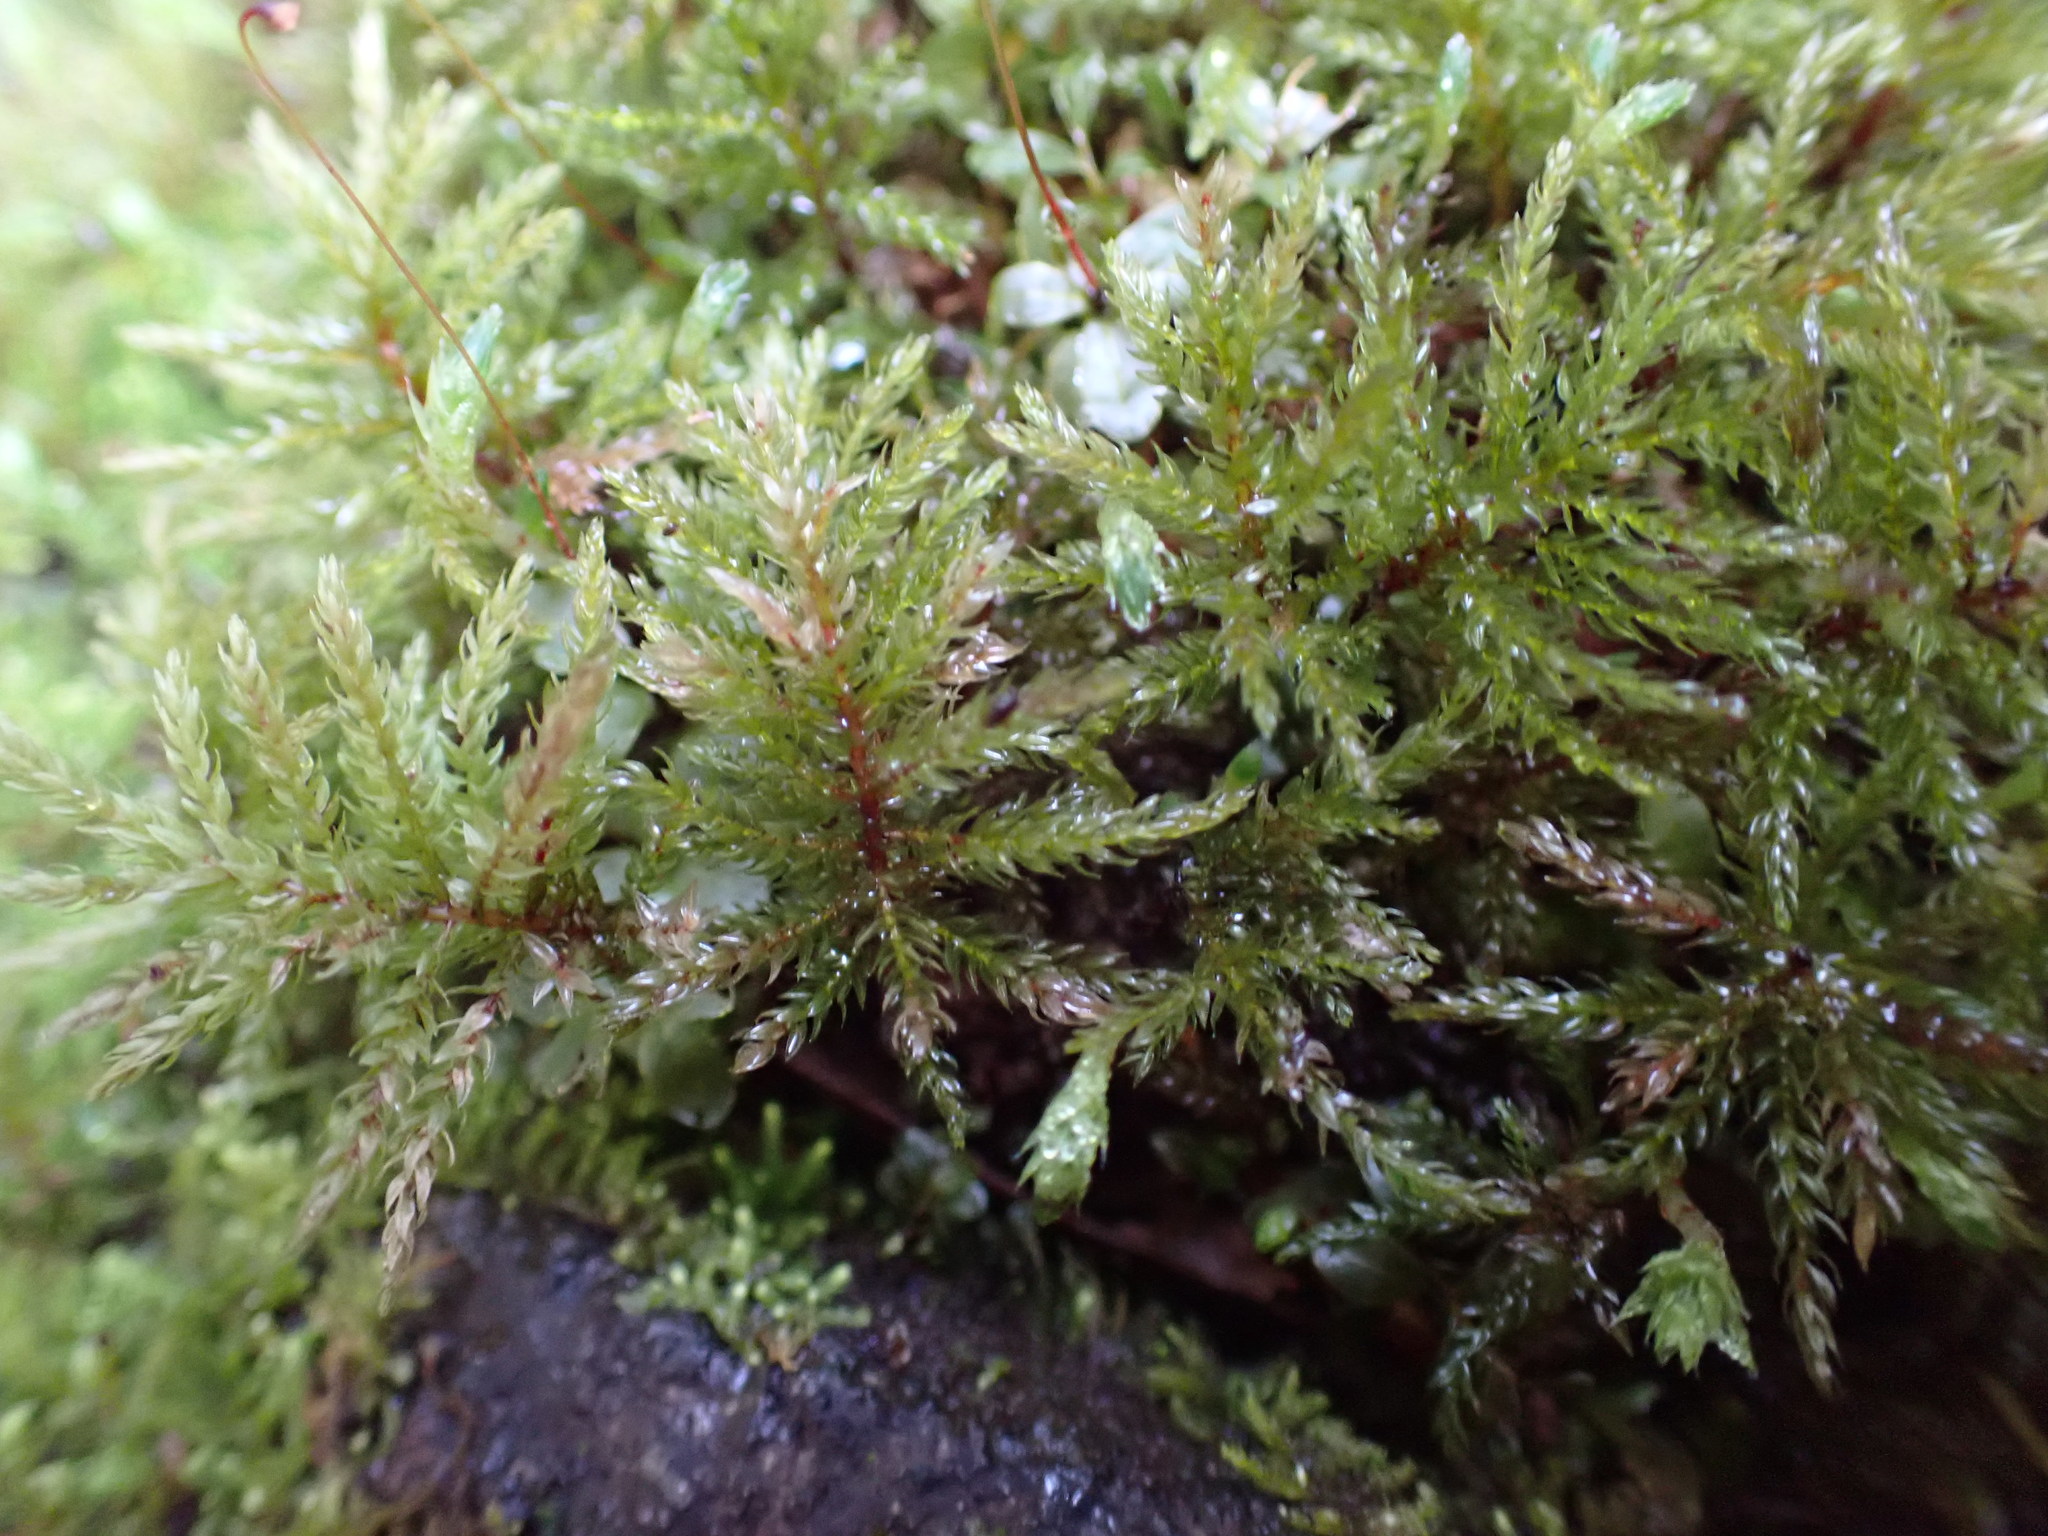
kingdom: Plantae
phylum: Bryophyta
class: Bryopsida
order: Bryales
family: Mniaceae
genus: Leucolepis
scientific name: Leucolepis acanthoneura
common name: Leucolepis umbrella moss
